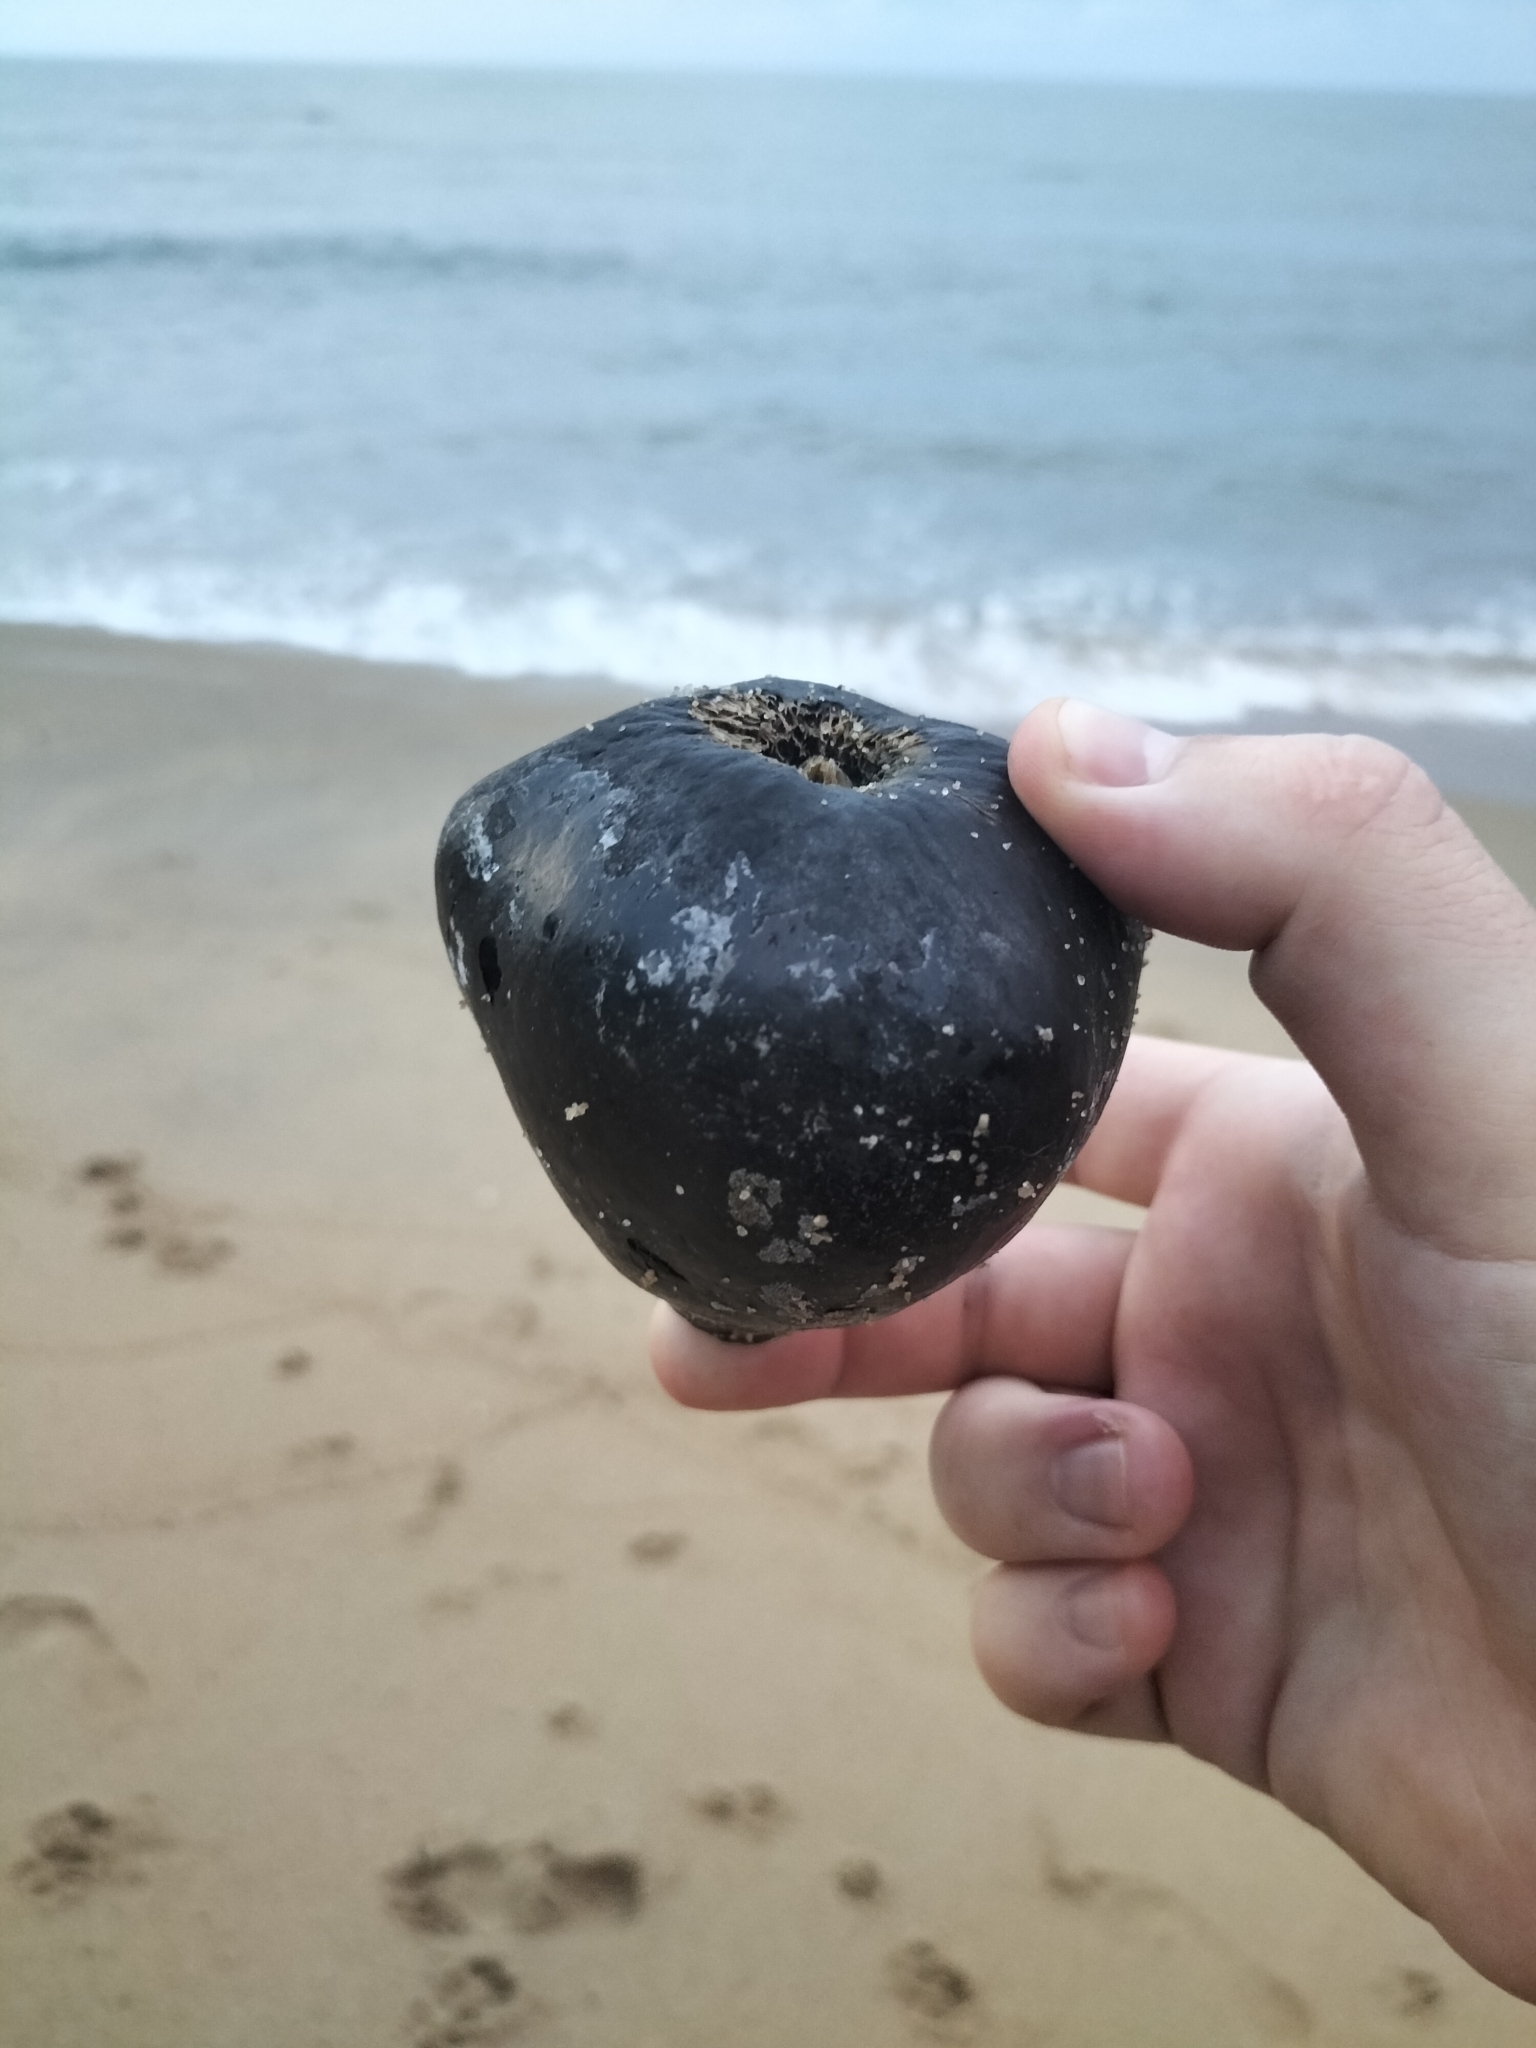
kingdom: Plantae
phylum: Tracheophyta
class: Magnoliopsida
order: Ericales
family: Lecythidaceae
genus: Barringtonia
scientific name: Barringtonia asiatica
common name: Mango-pine
